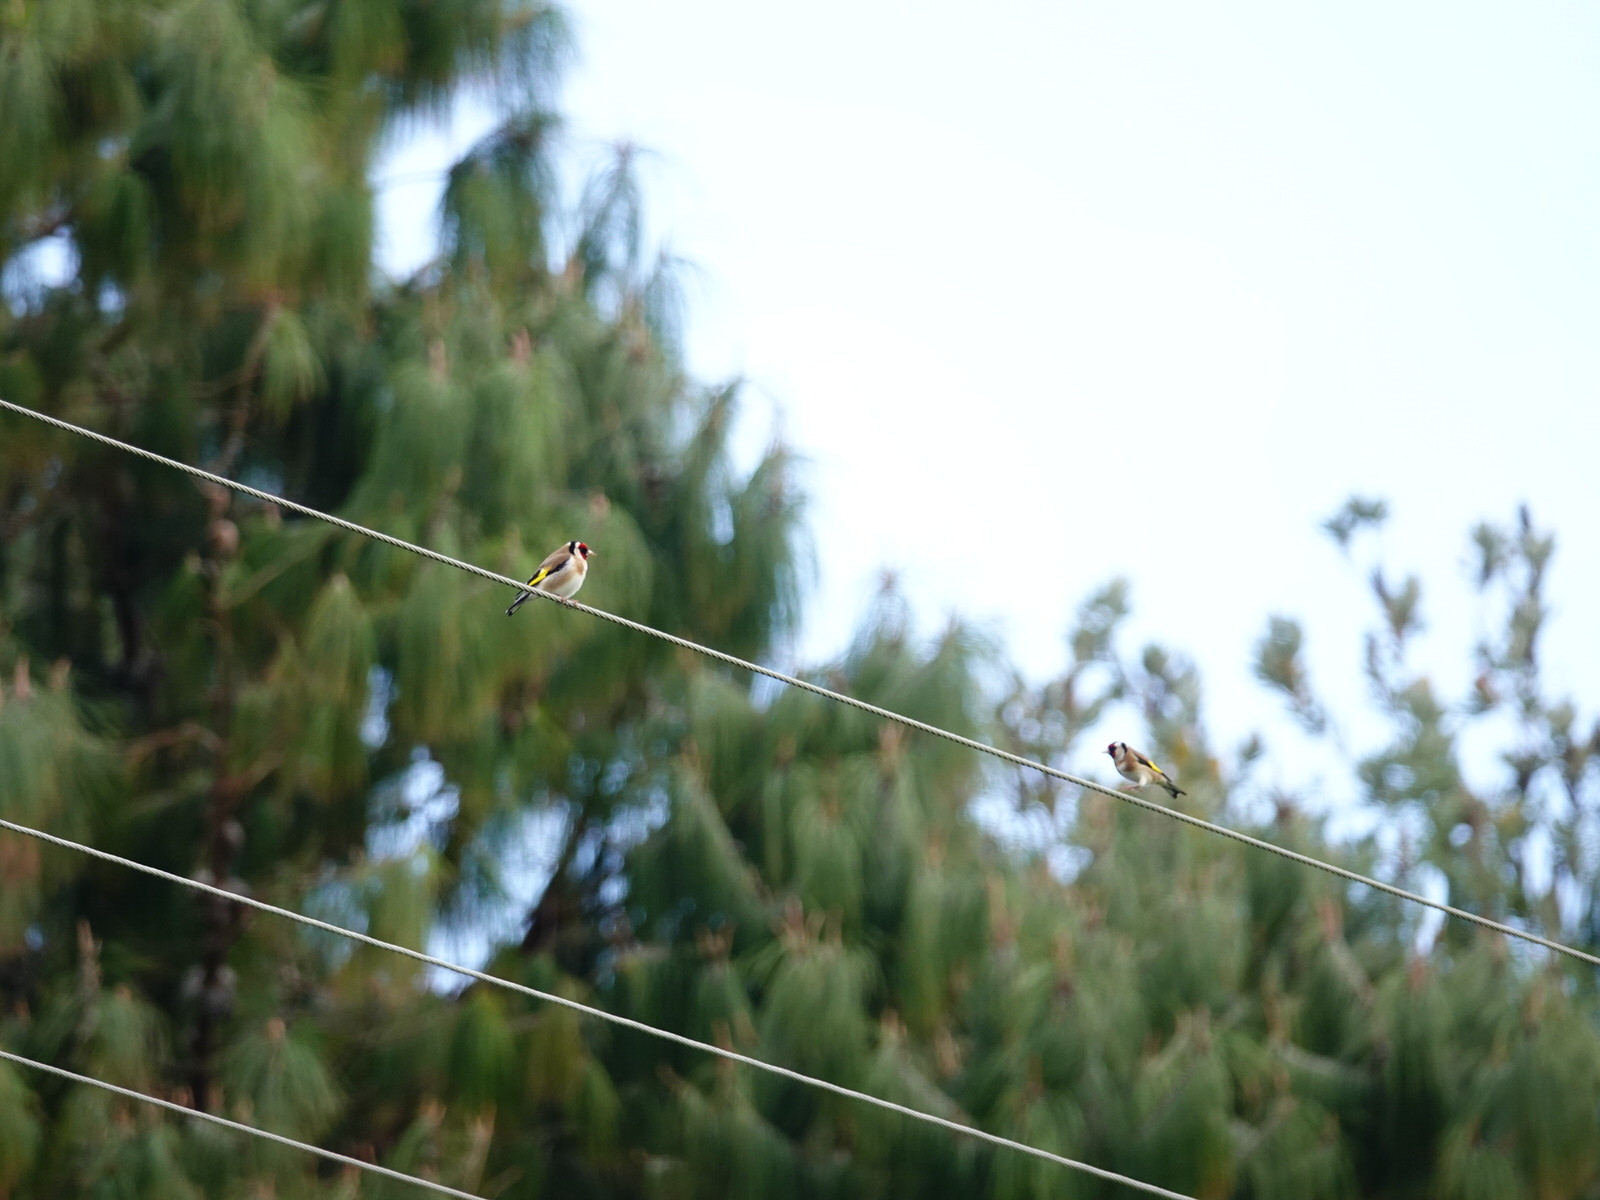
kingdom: Animalia
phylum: Chordata
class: Aves
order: Passeriformes
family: Fringillidae
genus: Carduelis
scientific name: Carduelis carduelis
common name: European goldfinch
